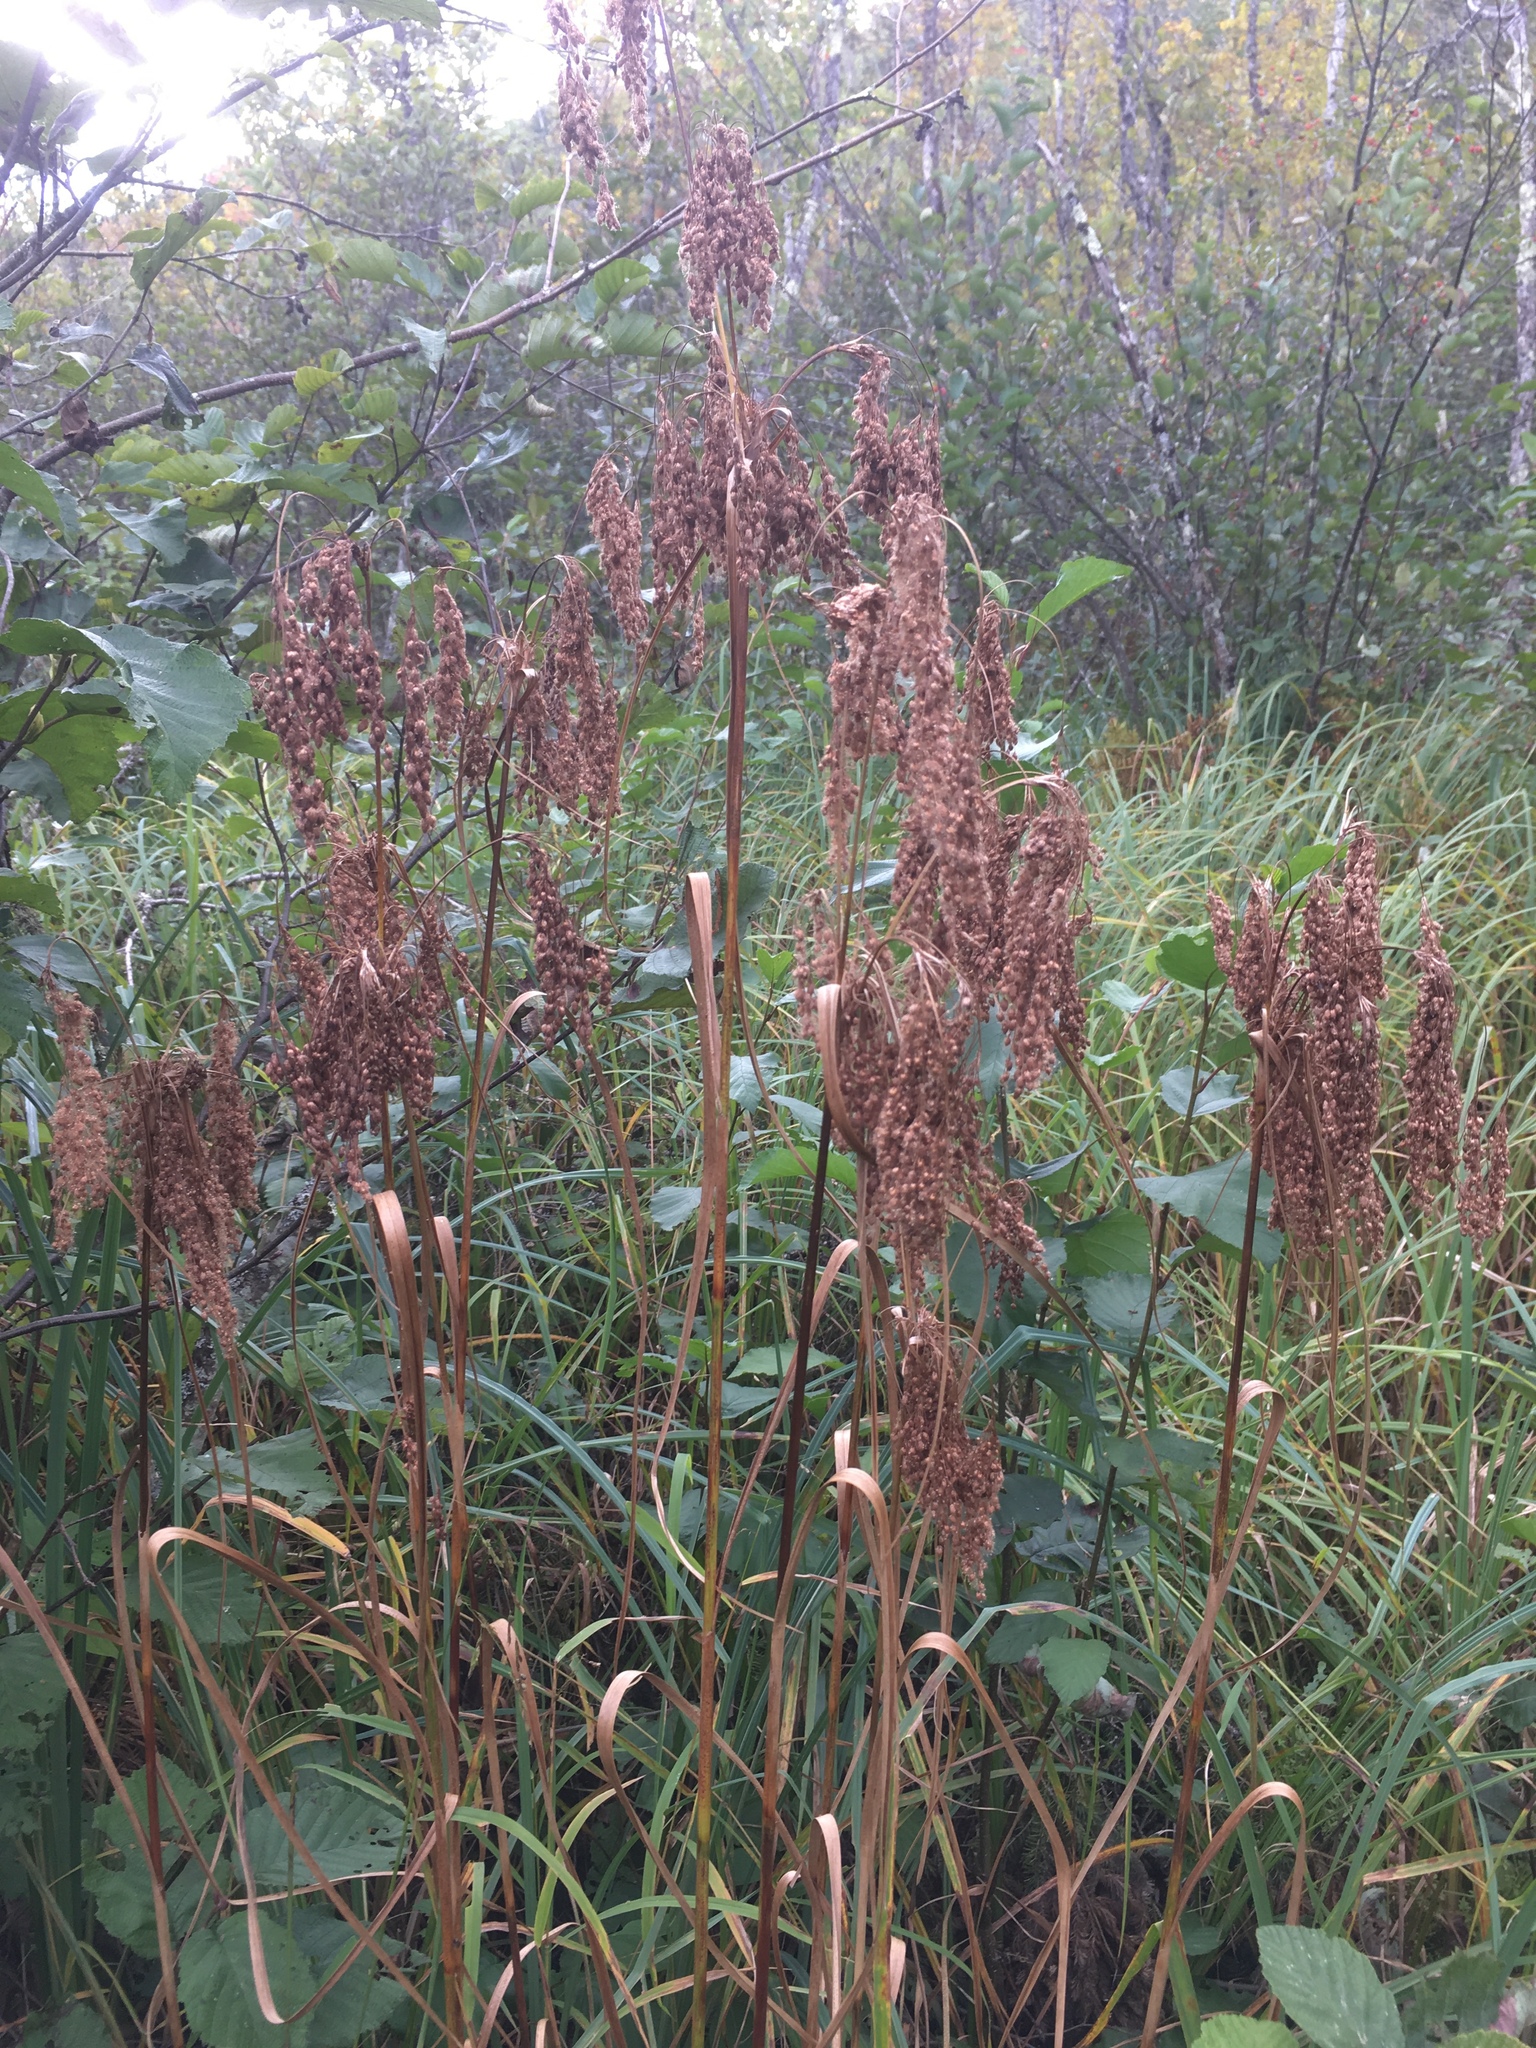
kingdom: Plantae
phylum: Tracheophyta
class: Liliopsida
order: Poales
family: Cyperaceae
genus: Scirpus
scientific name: Scirpus cyperinus
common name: Black-sheathed bulrush
